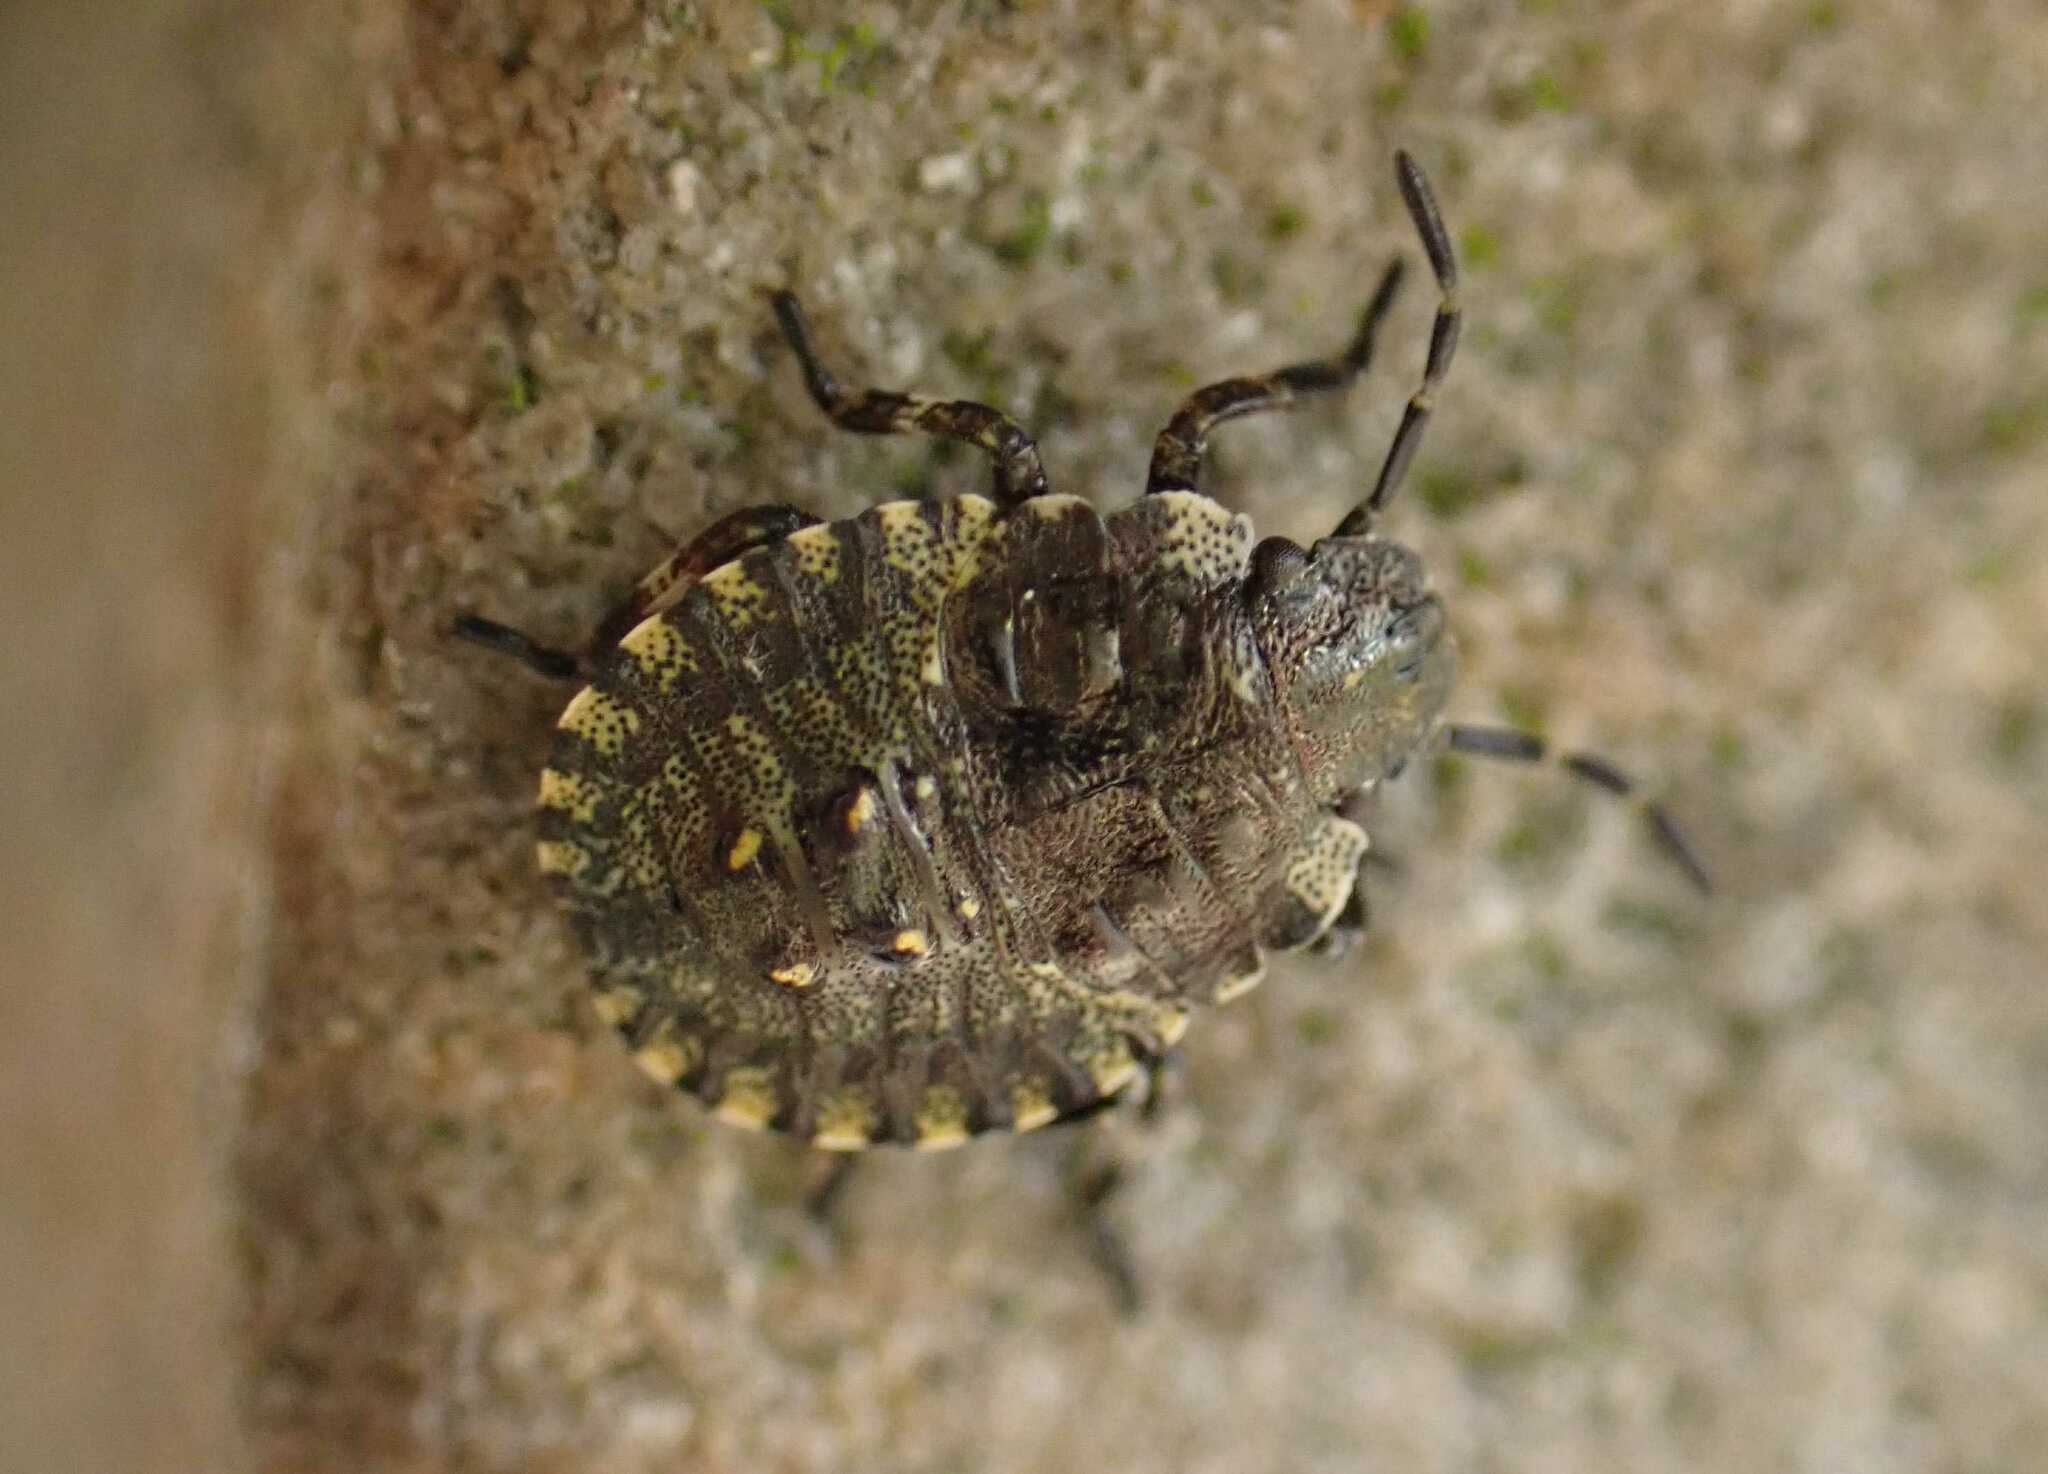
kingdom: Animalia
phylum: Arthropoda
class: Insecta
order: Hemiptera
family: Pentatomidae
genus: Pentatoma
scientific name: Pentatoma rufipes
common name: Forest bug
